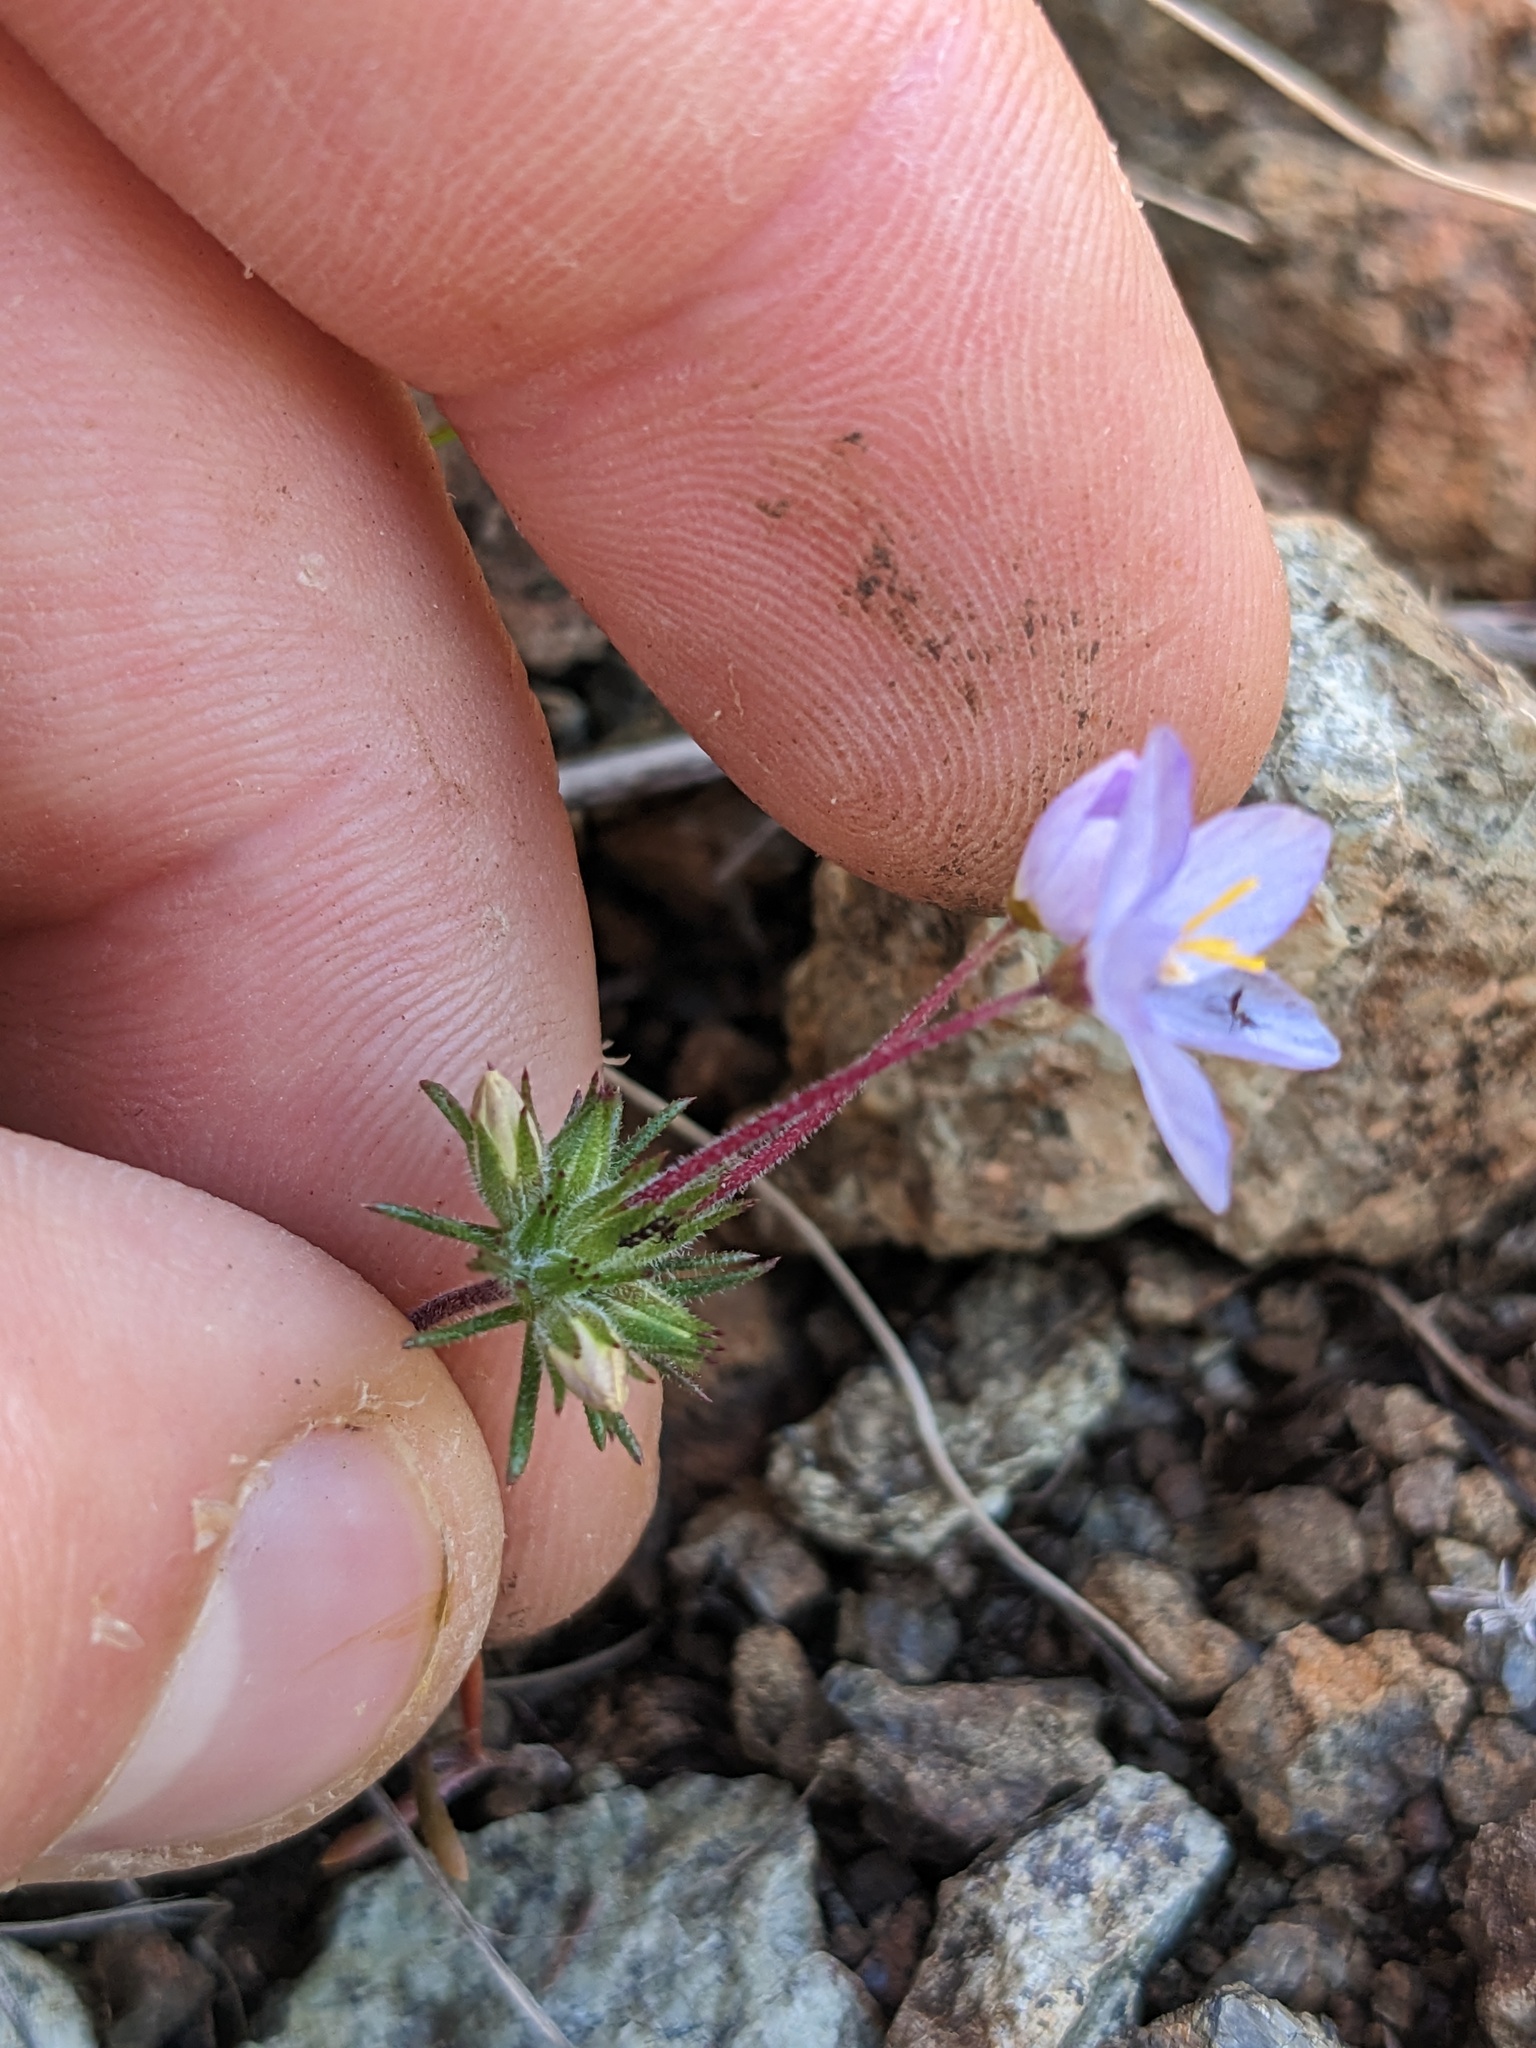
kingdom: Plantae
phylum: Tracheophyta
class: Magnoliopsida
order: Ericales
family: Polemoniaceae
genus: Leptosiphon
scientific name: Leptosiphon parviflorus
